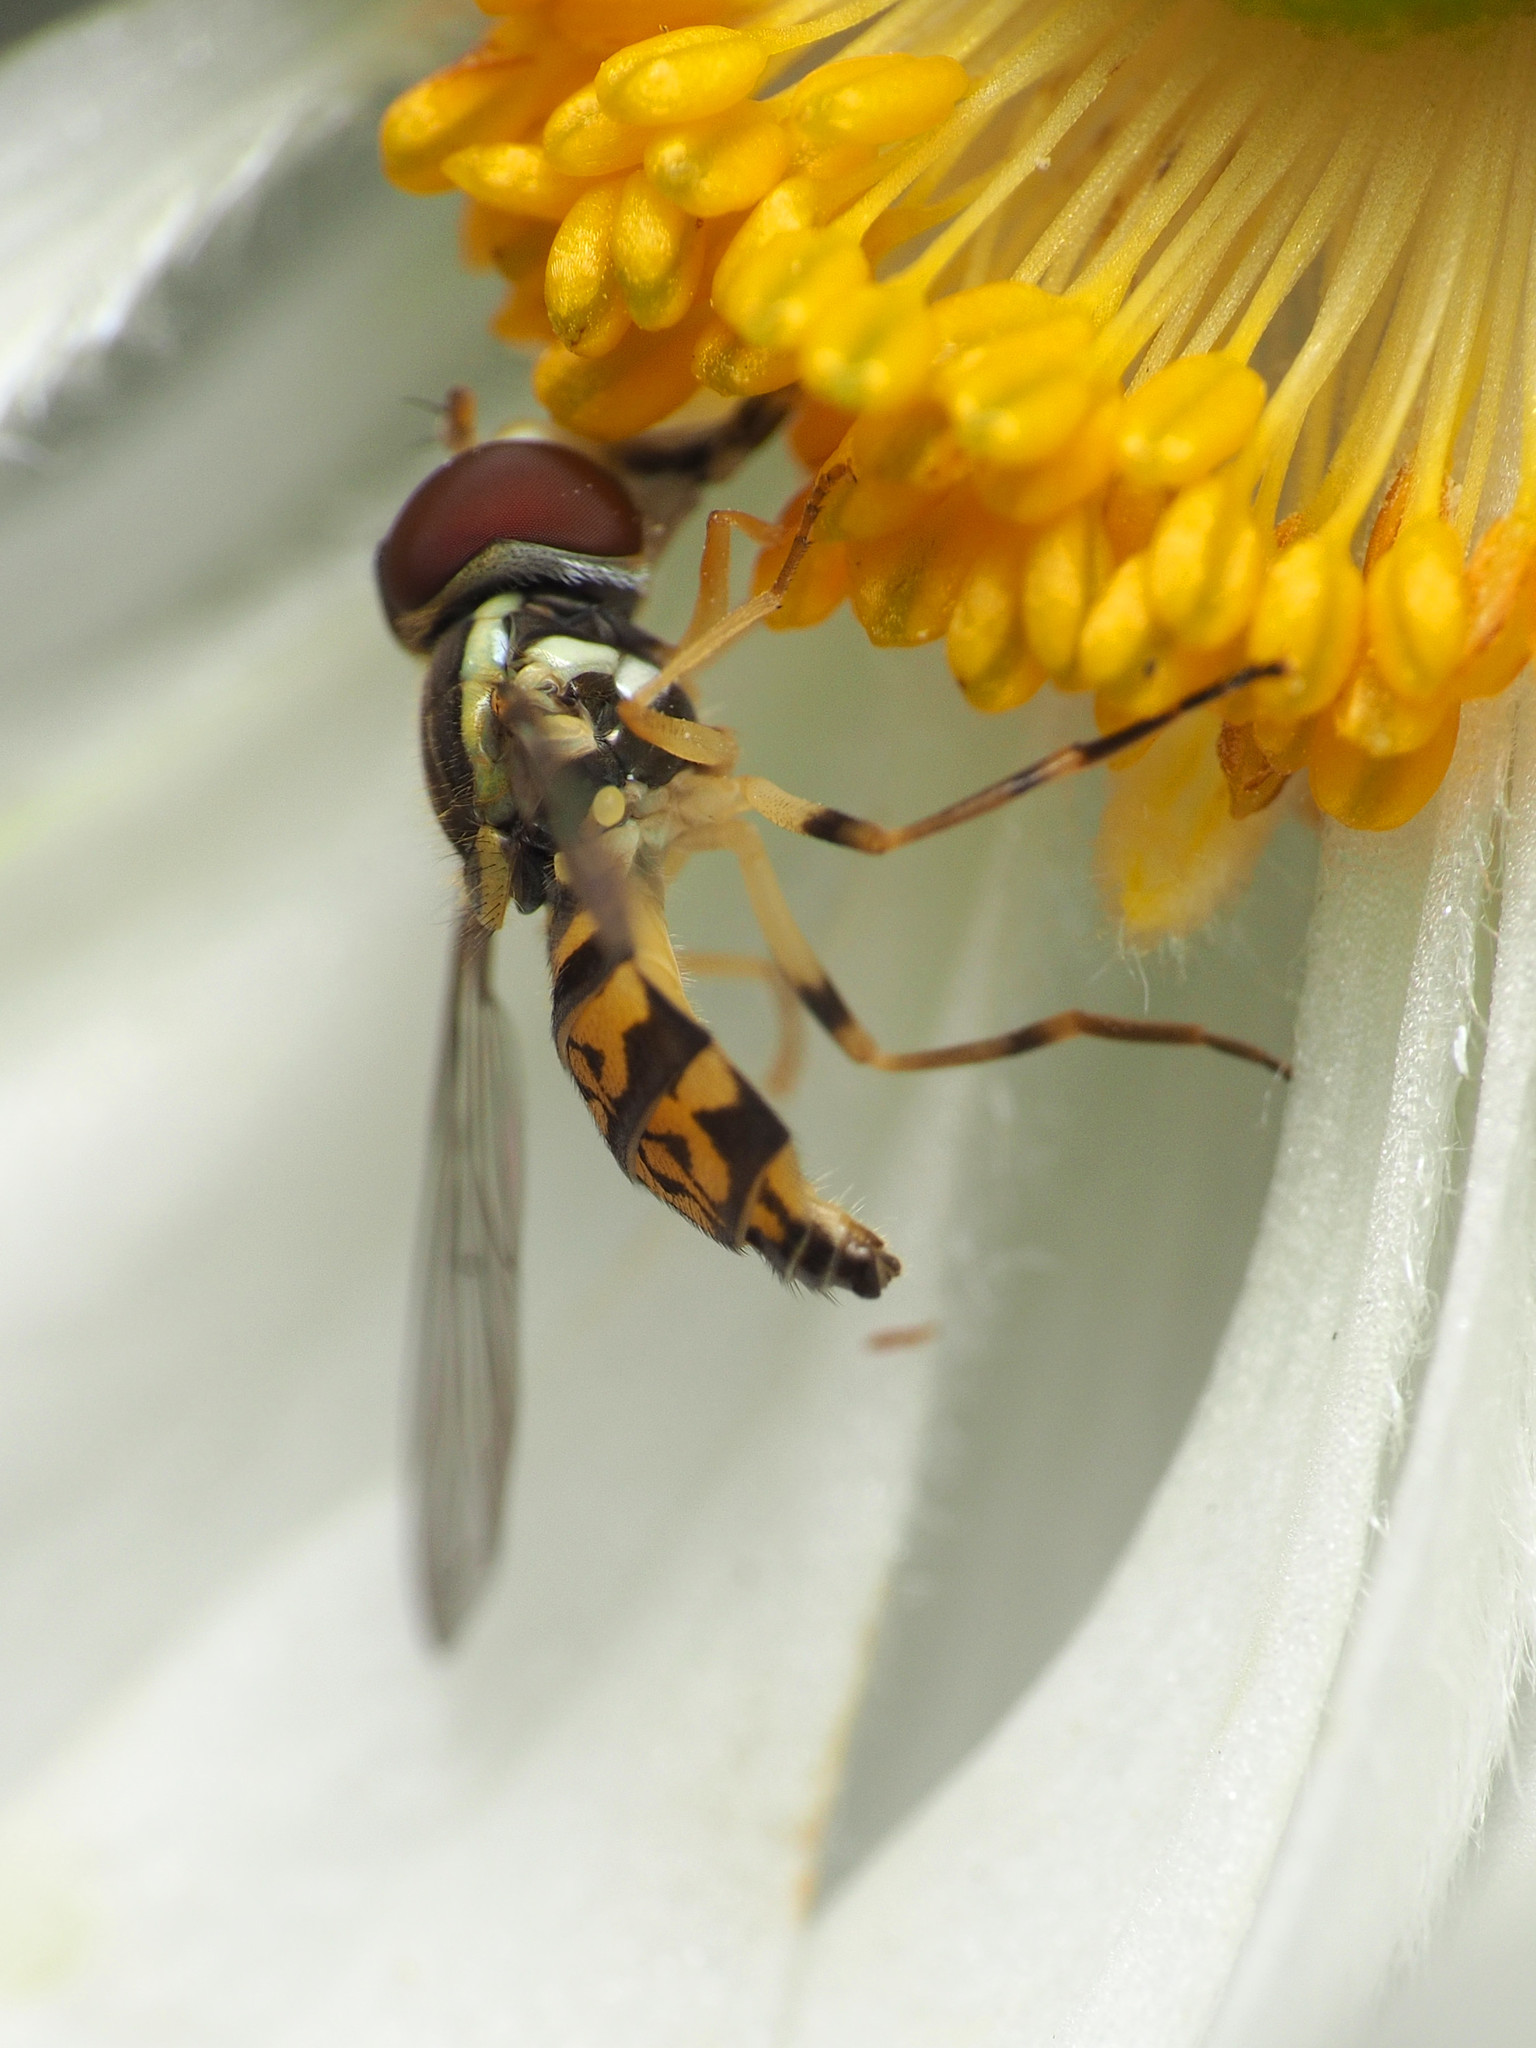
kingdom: Animalia
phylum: Arthropoda
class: Insecta
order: Diptera
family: Syrphidae
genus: Toxomerus
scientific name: Toxomerus geminatus
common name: Eastern calligrapher
